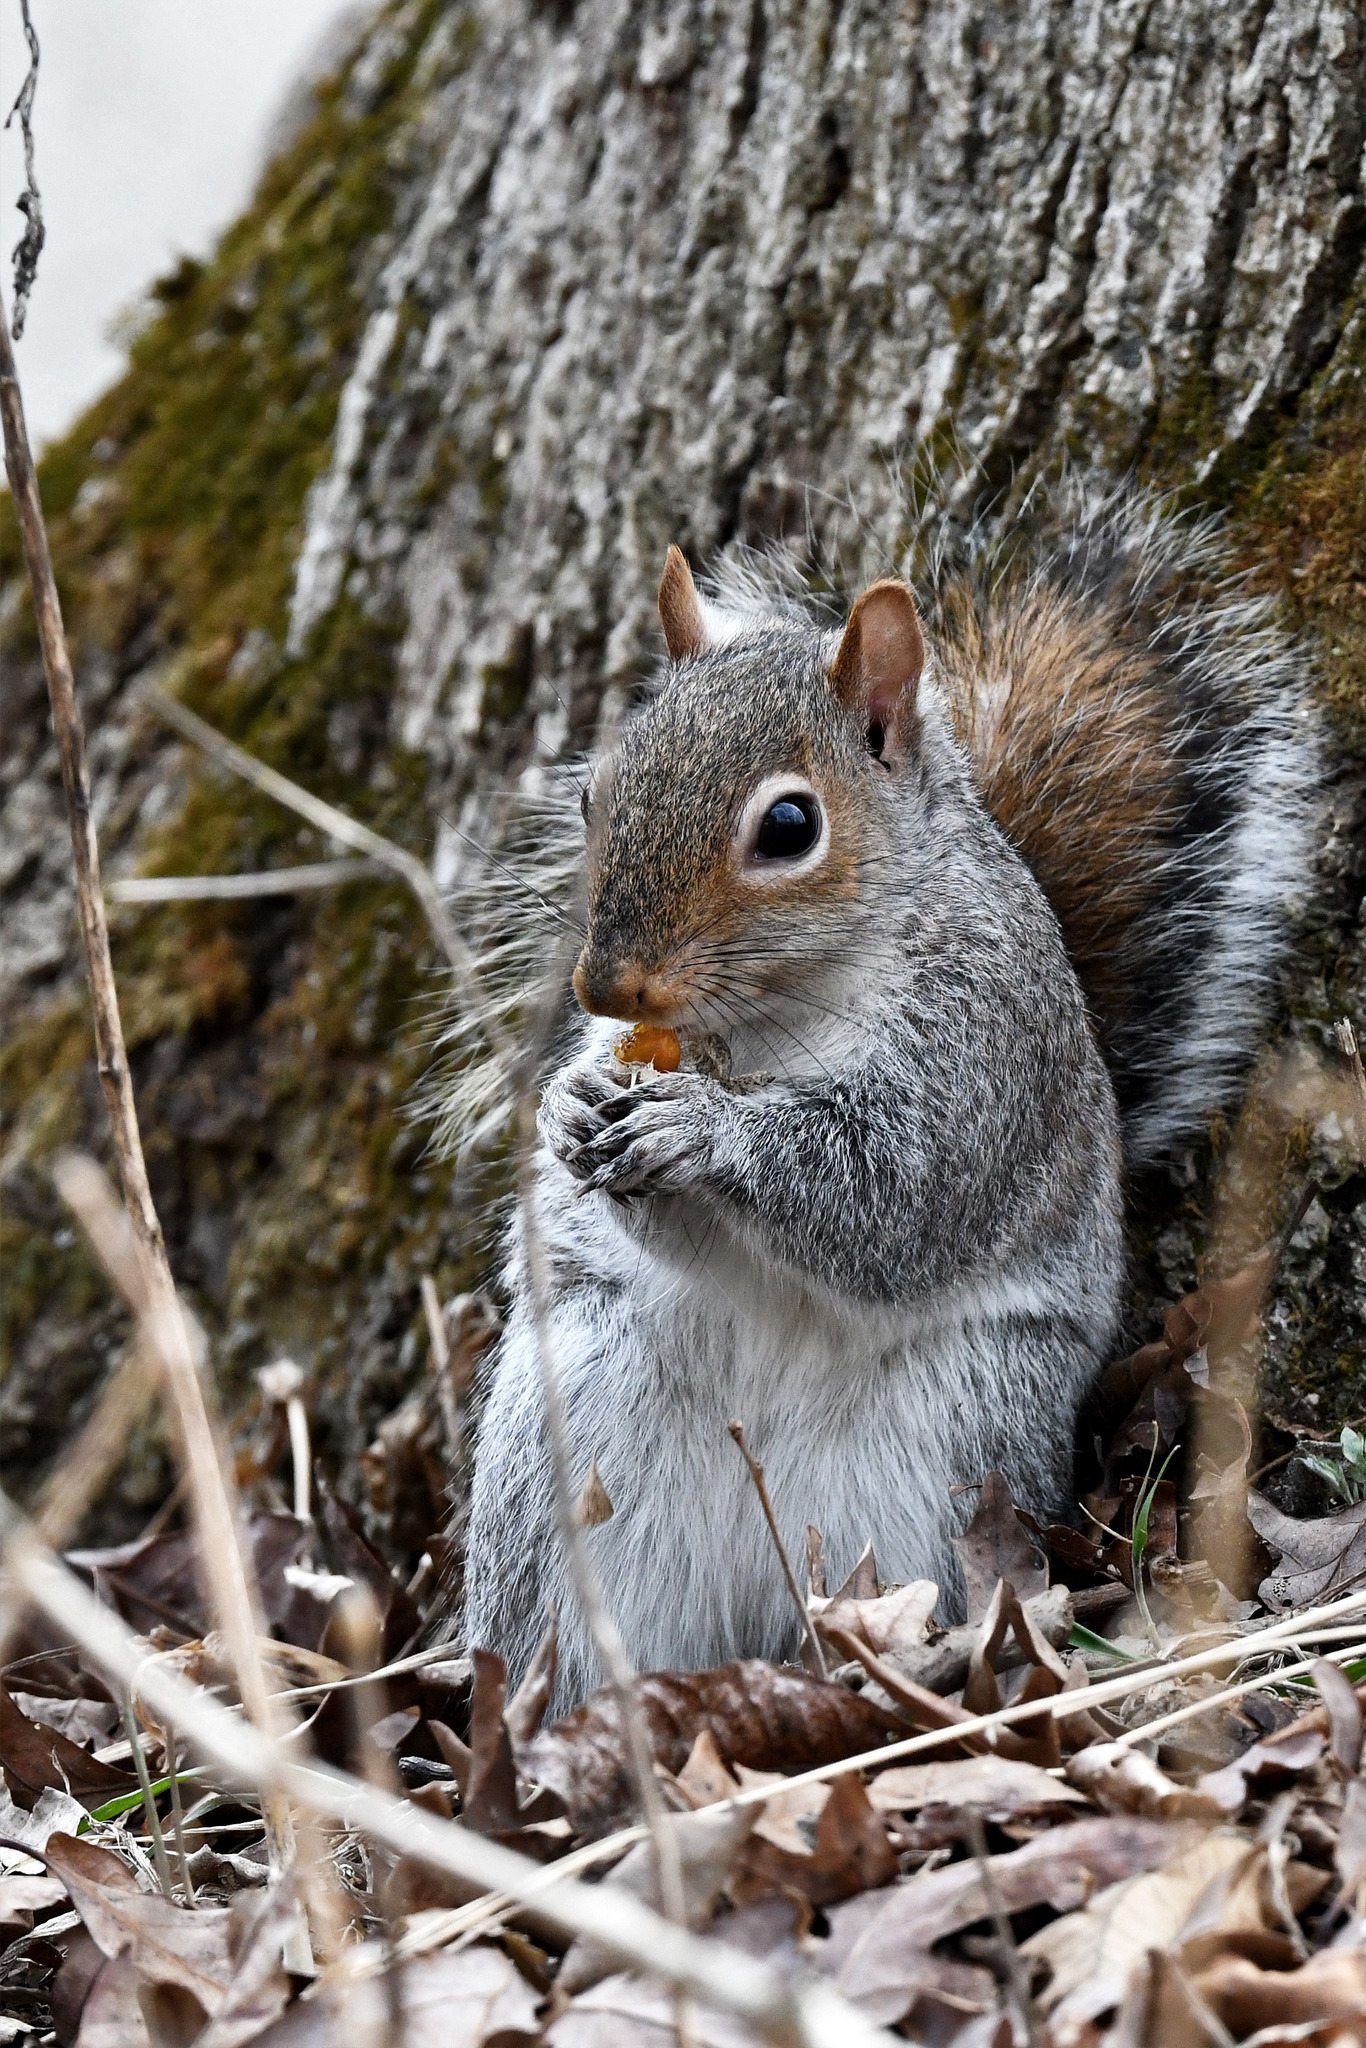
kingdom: Animalia
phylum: Chordata
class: Mammalia
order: Rodentia
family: Sciuridae
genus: Sciurus
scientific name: Sciurus carolinensis
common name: Eastern gray squirrel
